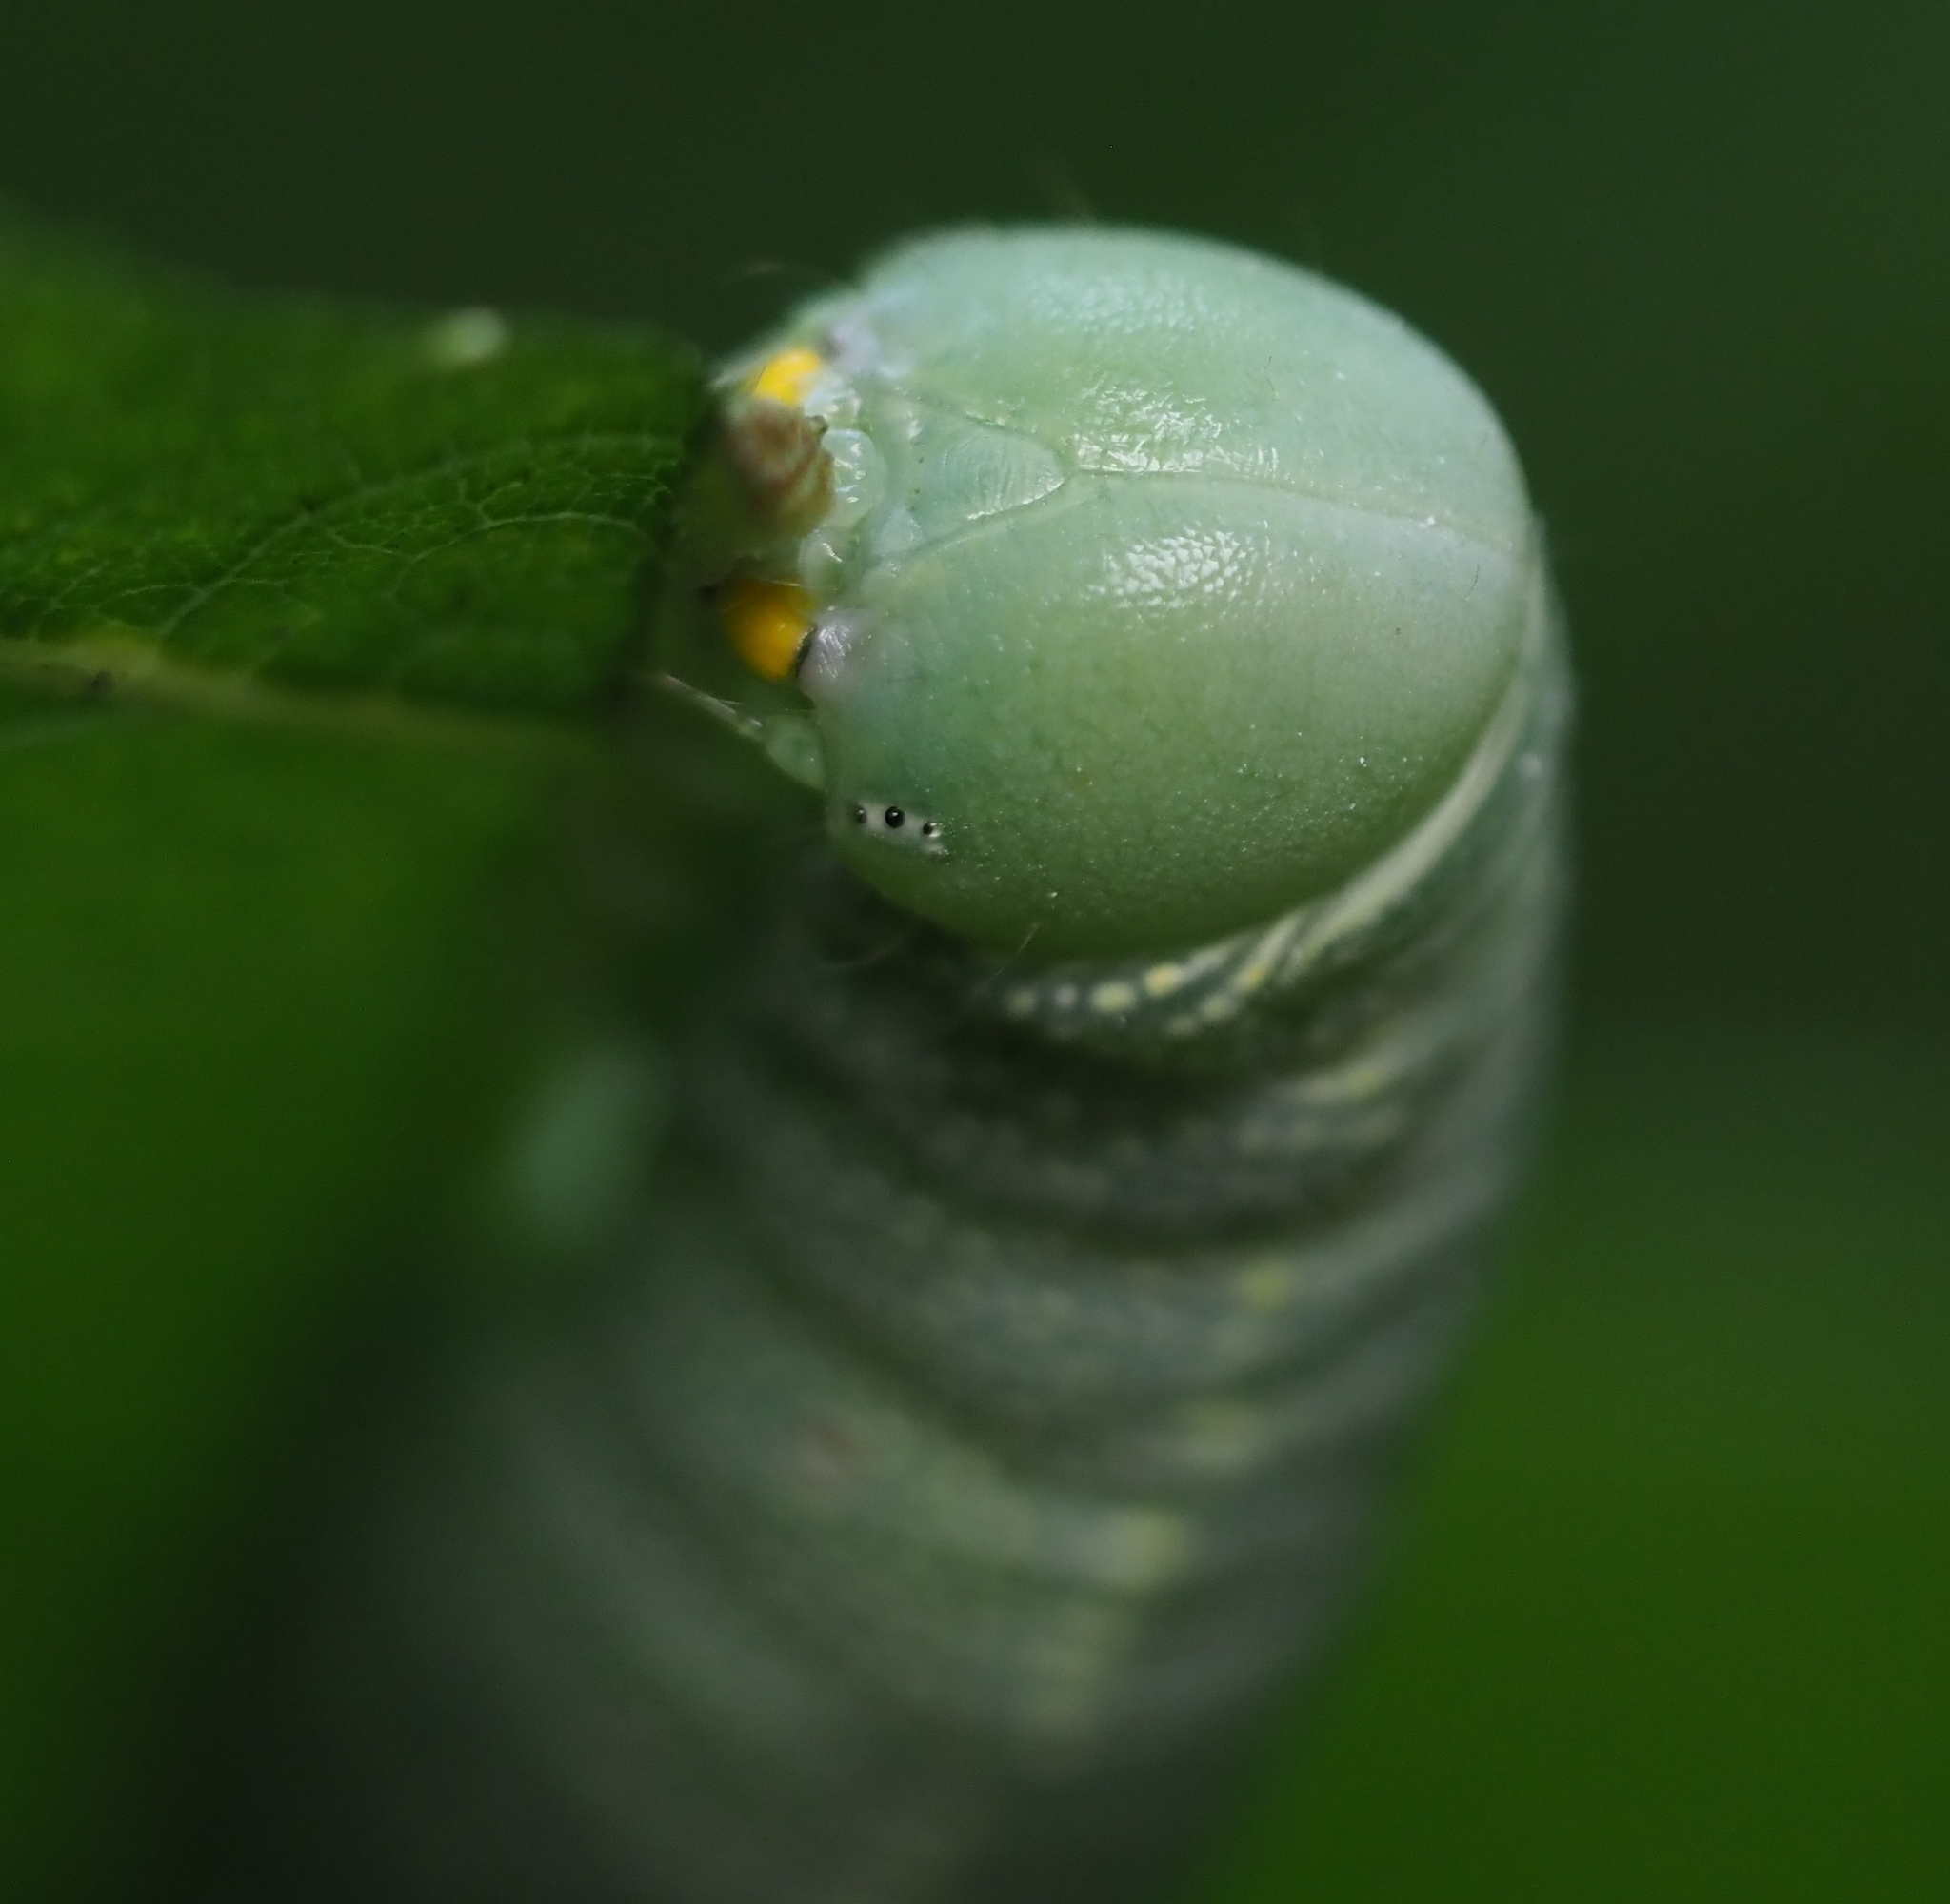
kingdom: Animalia
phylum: Arthropoda
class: Insecta
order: Lepidoptera
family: Notodontidae
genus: Nadata
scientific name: Nadata gibbosa
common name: White-dotted prominent
